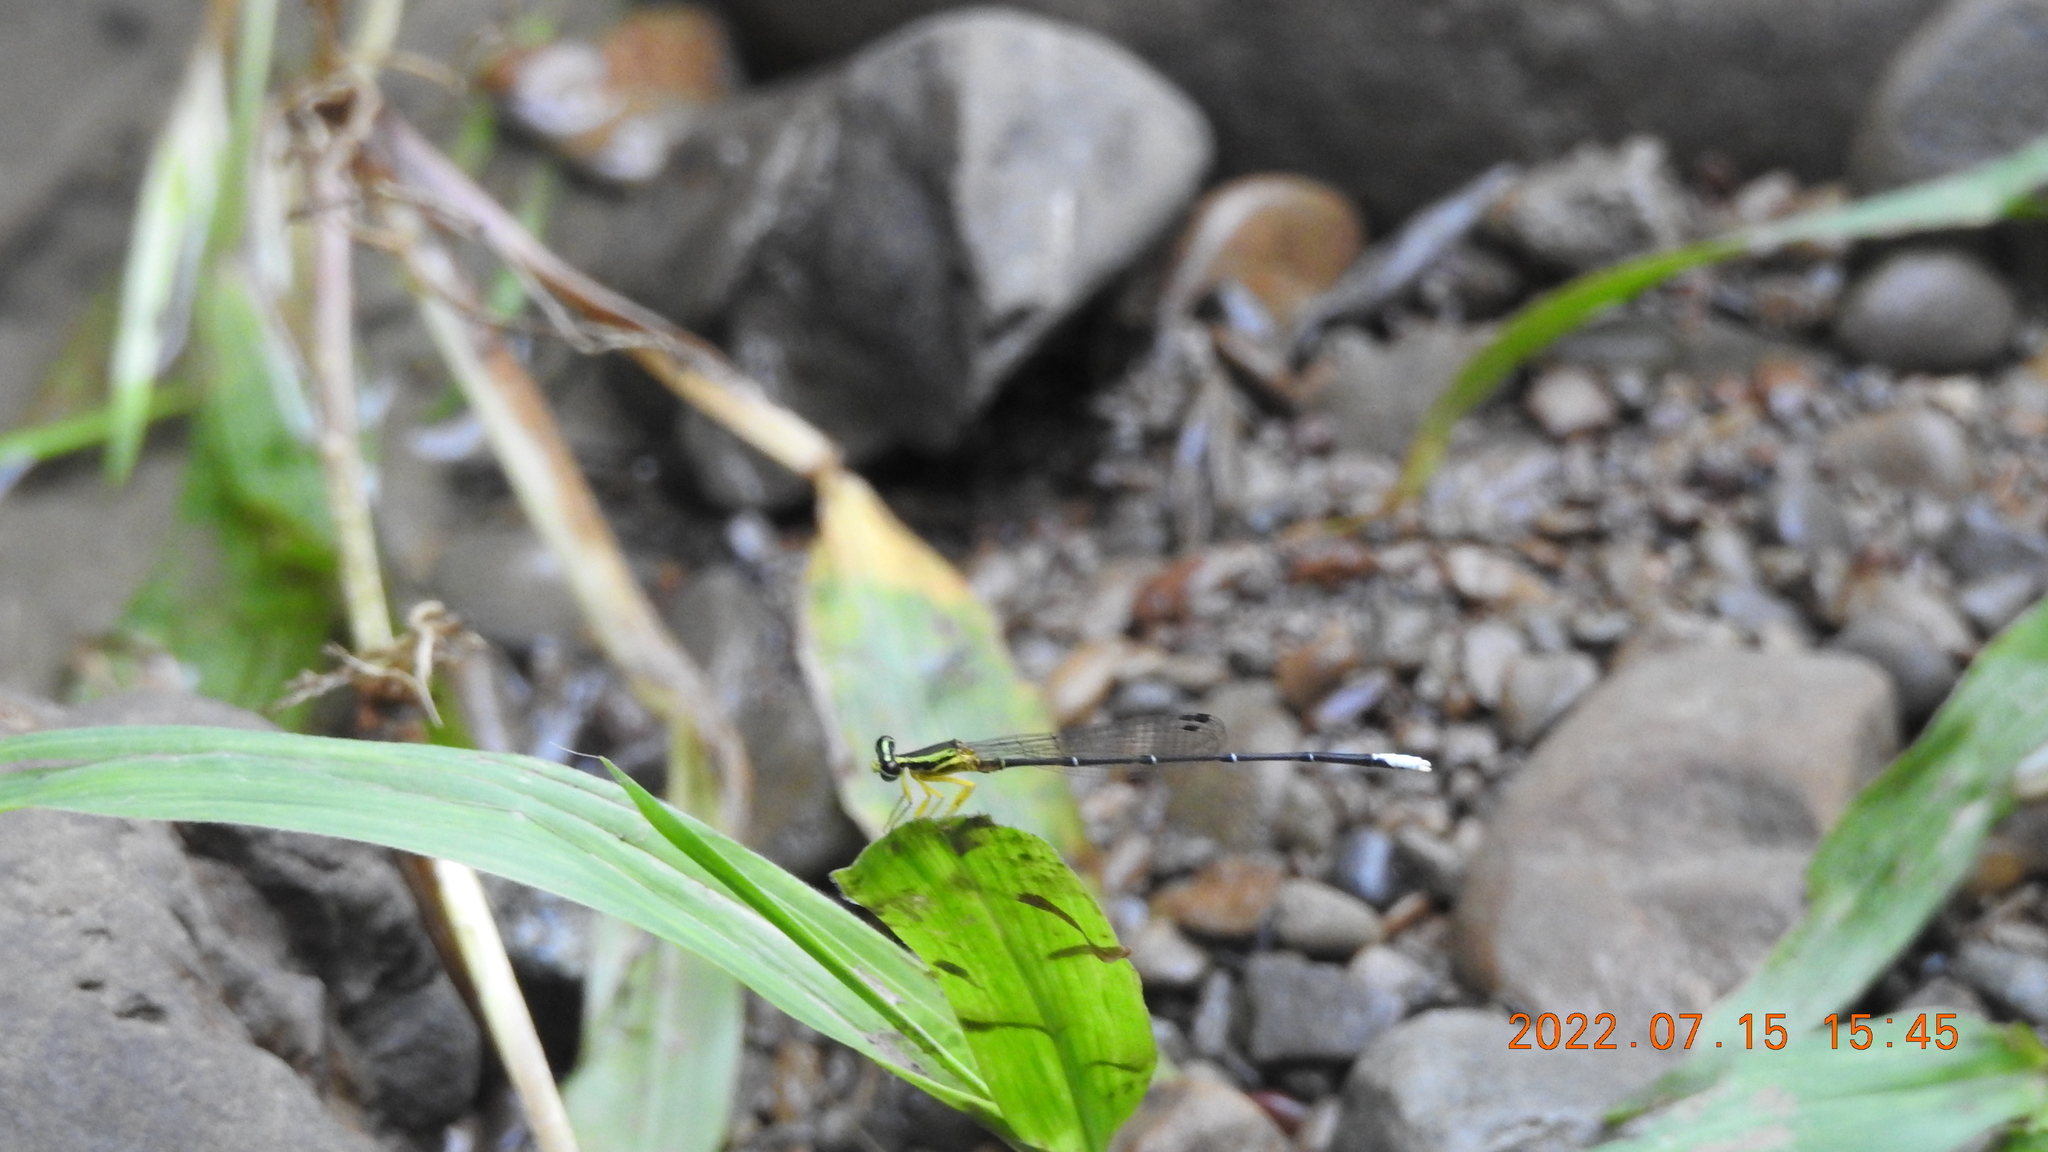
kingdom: Animalia
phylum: Arthropoda
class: Insecta
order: Odonata
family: Platycnemididae
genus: Copera
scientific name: Copera marginipes
